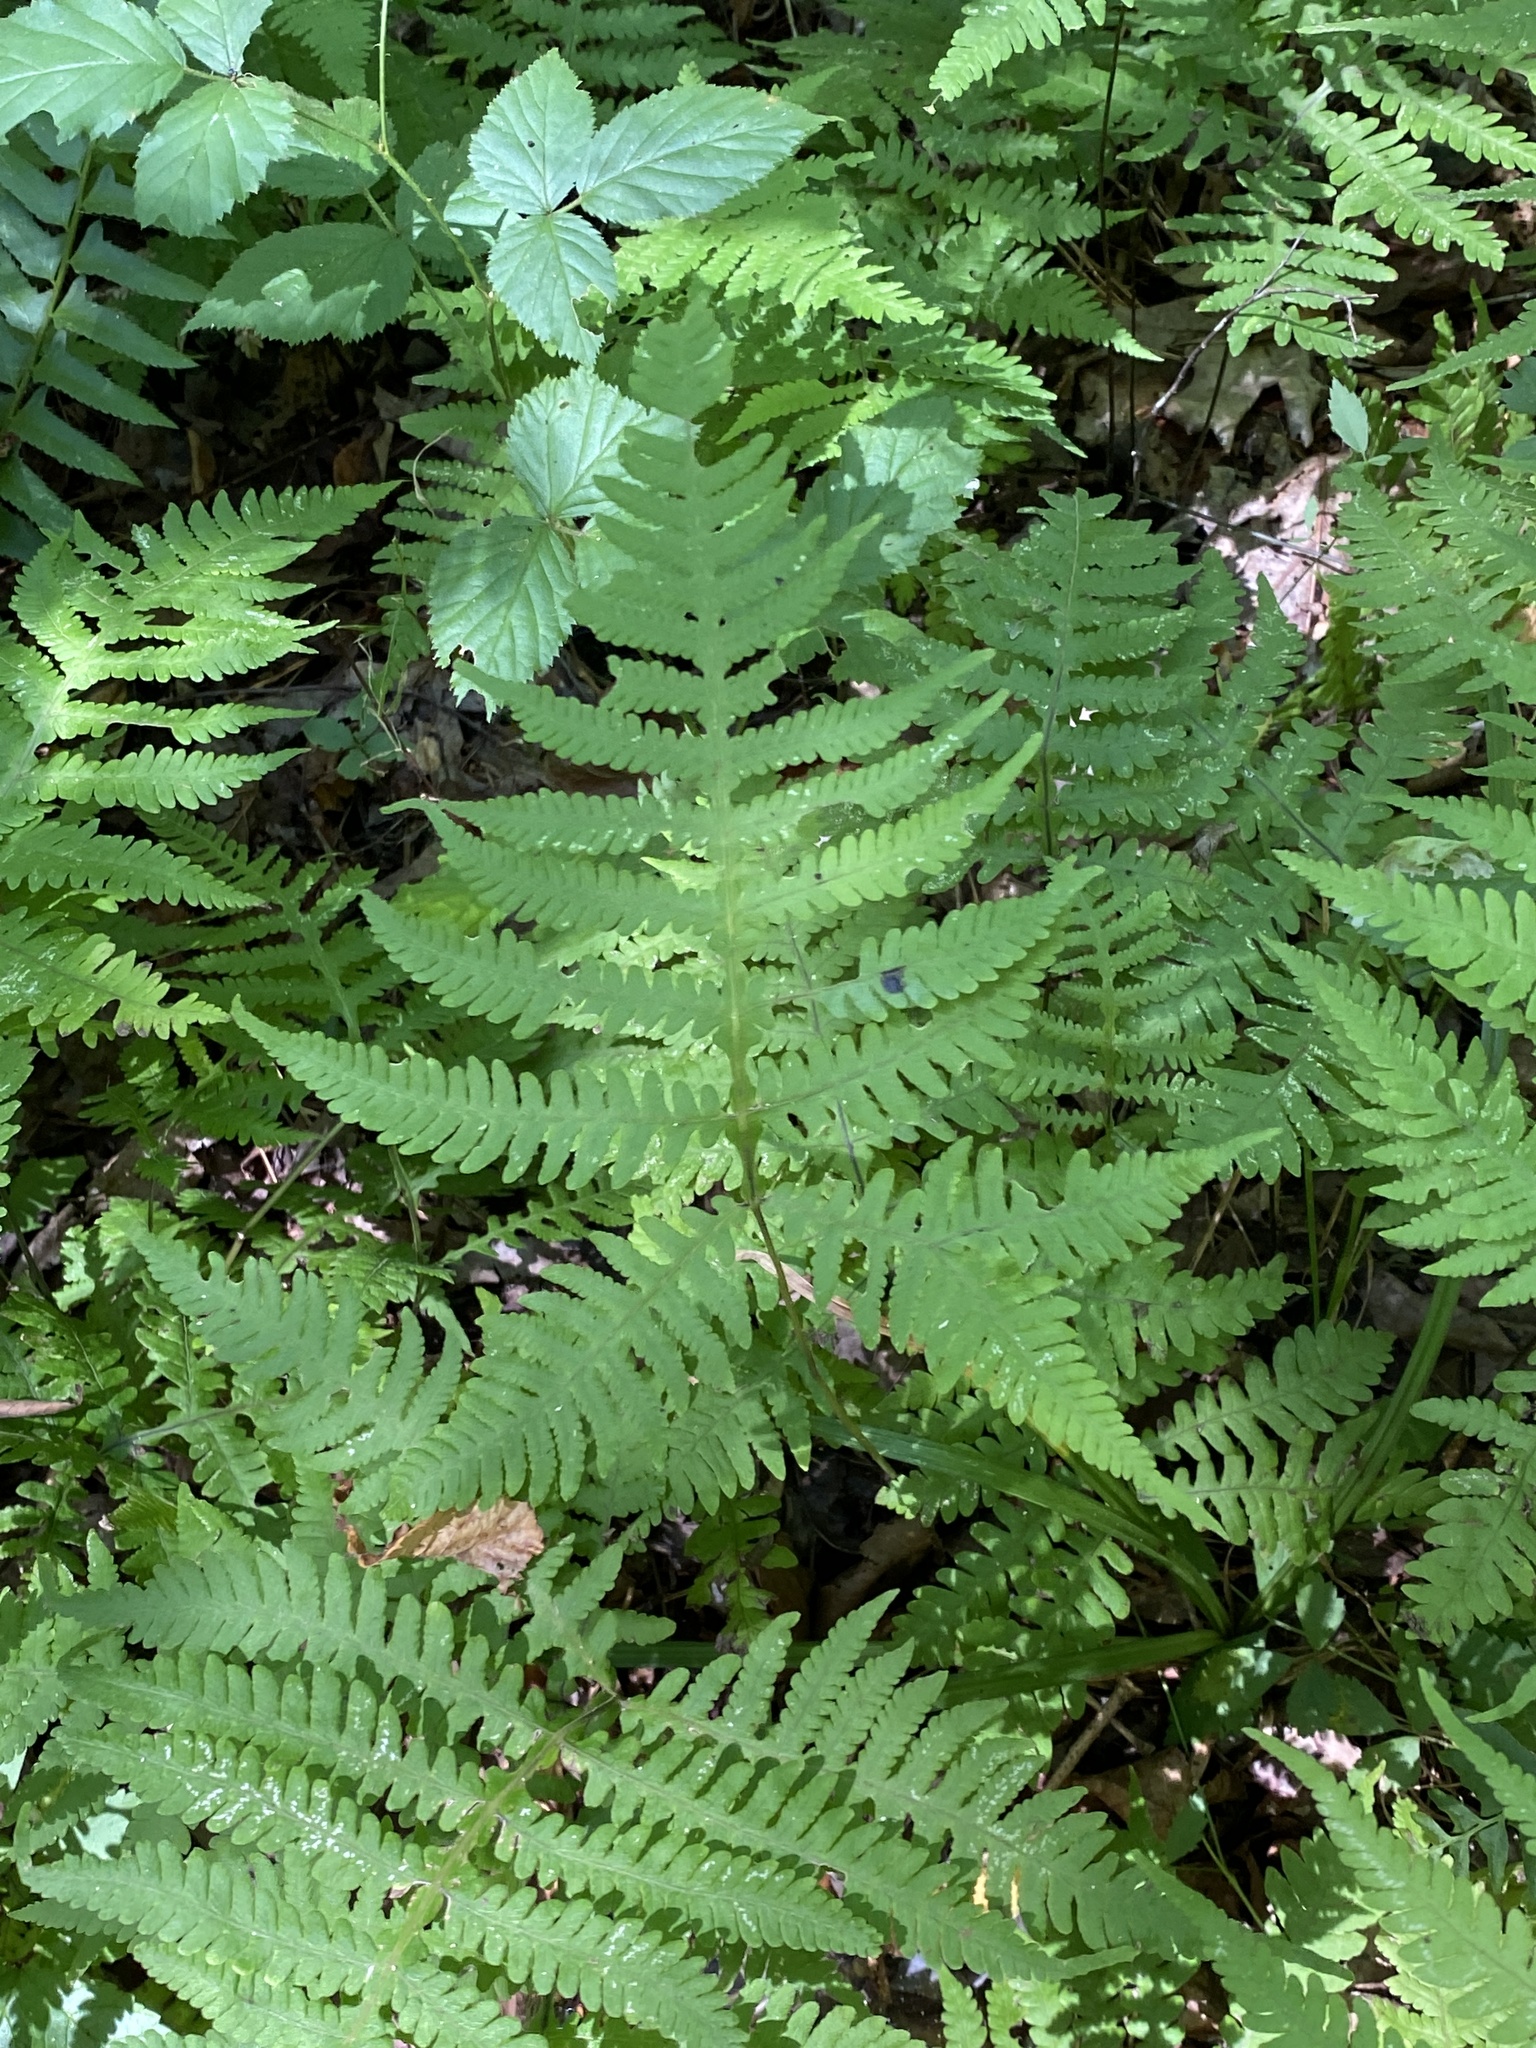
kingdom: Plantae
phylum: Tracheophyta
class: Polypodiopsida
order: Polypodiales
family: Thelypteridaceae
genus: Phegopteris
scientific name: Phegopteris hexagonoptera
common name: Broad beech fern
